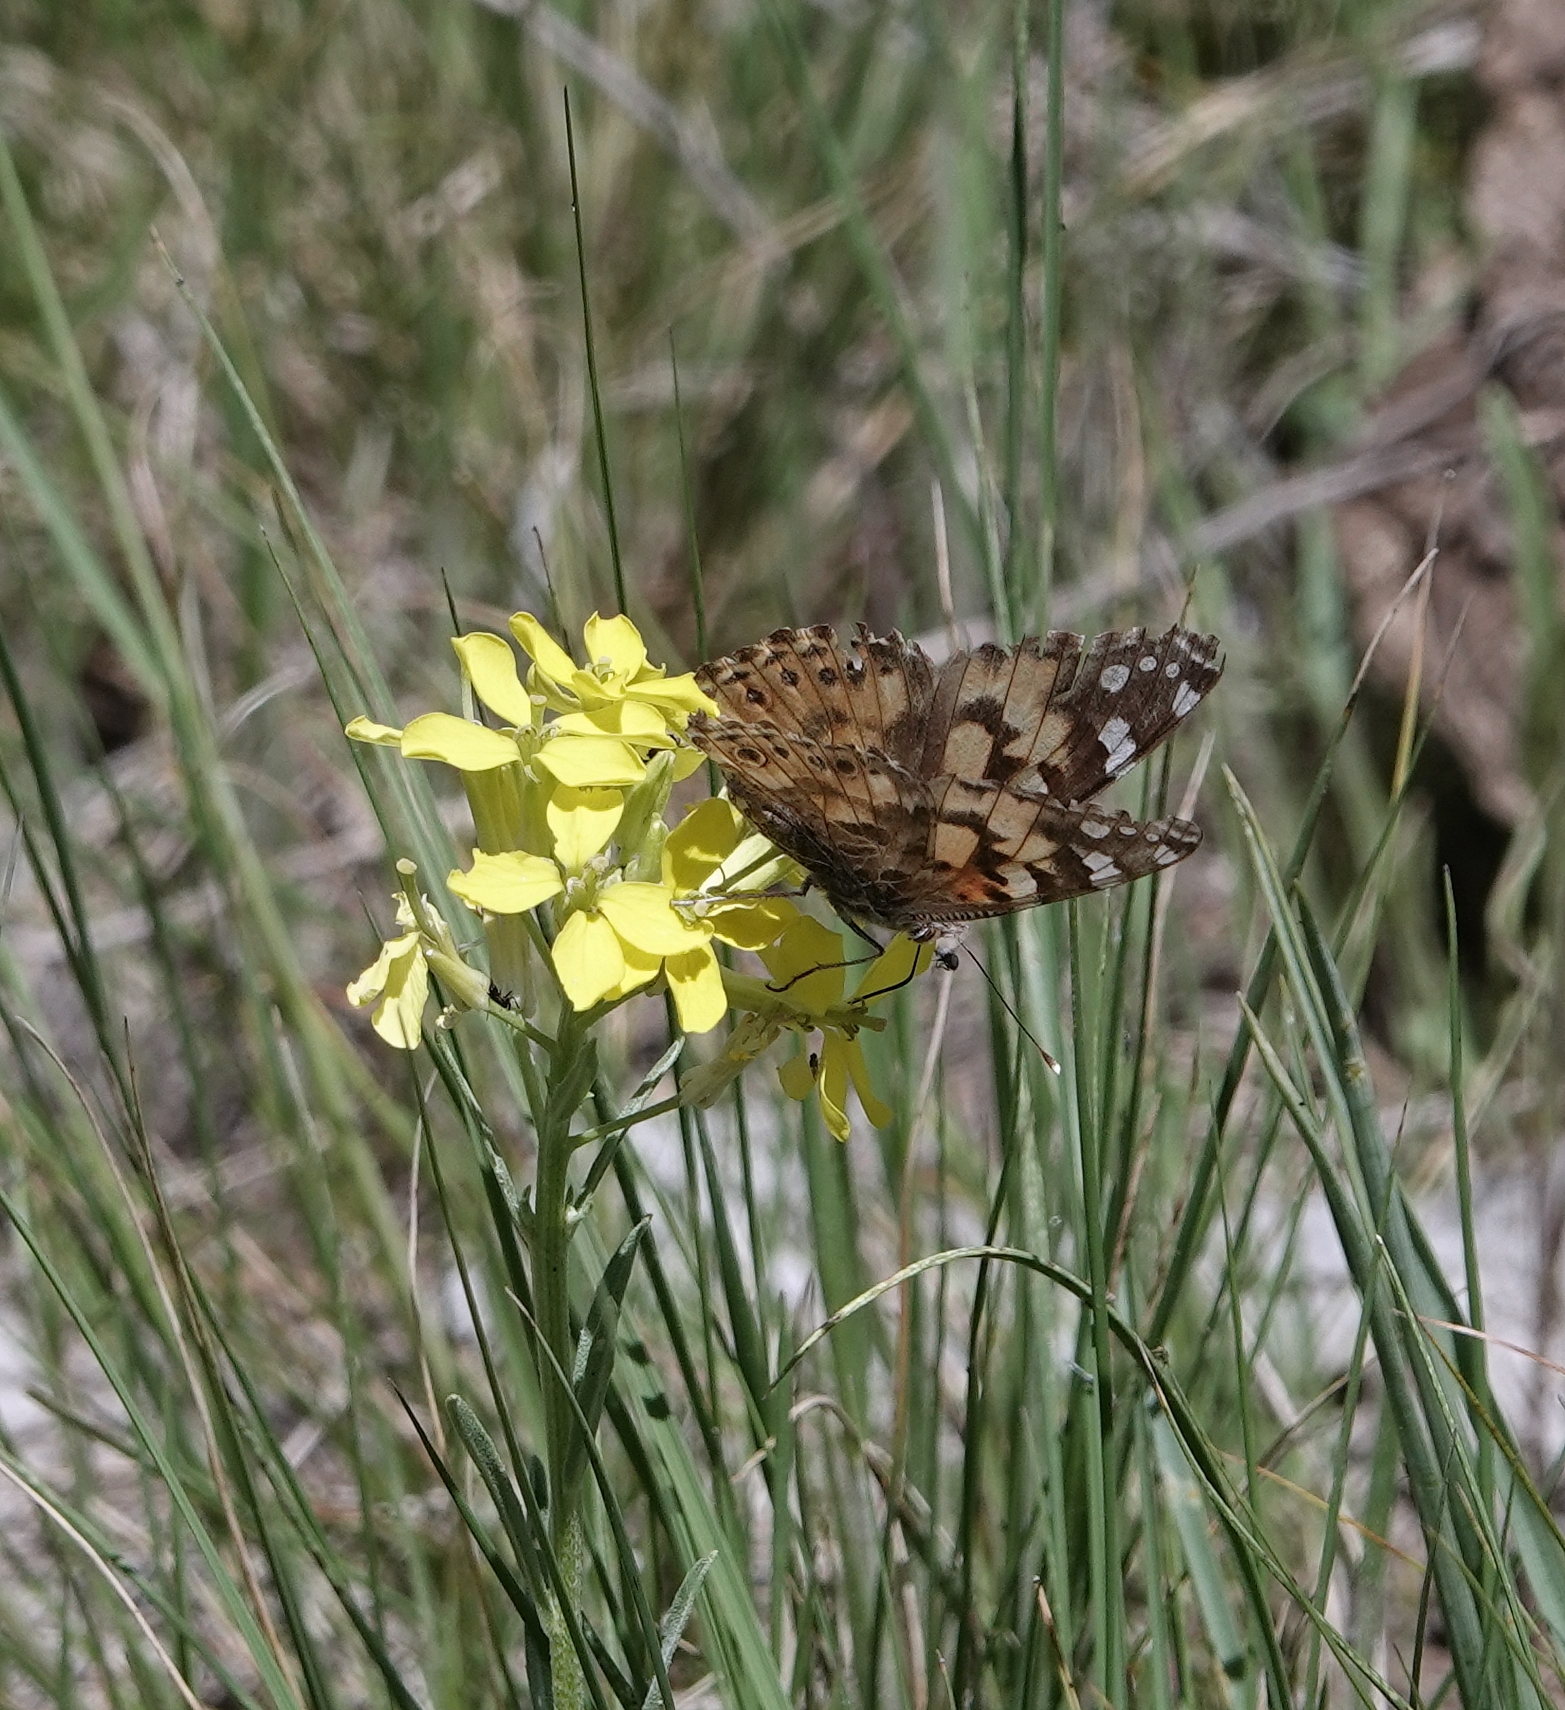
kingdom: Animalia
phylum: Arthropoda
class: Insecta
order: Lepidoptera
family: Nymphalidae
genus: Vanessa
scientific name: Vanessa cardui
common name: Painted lady
